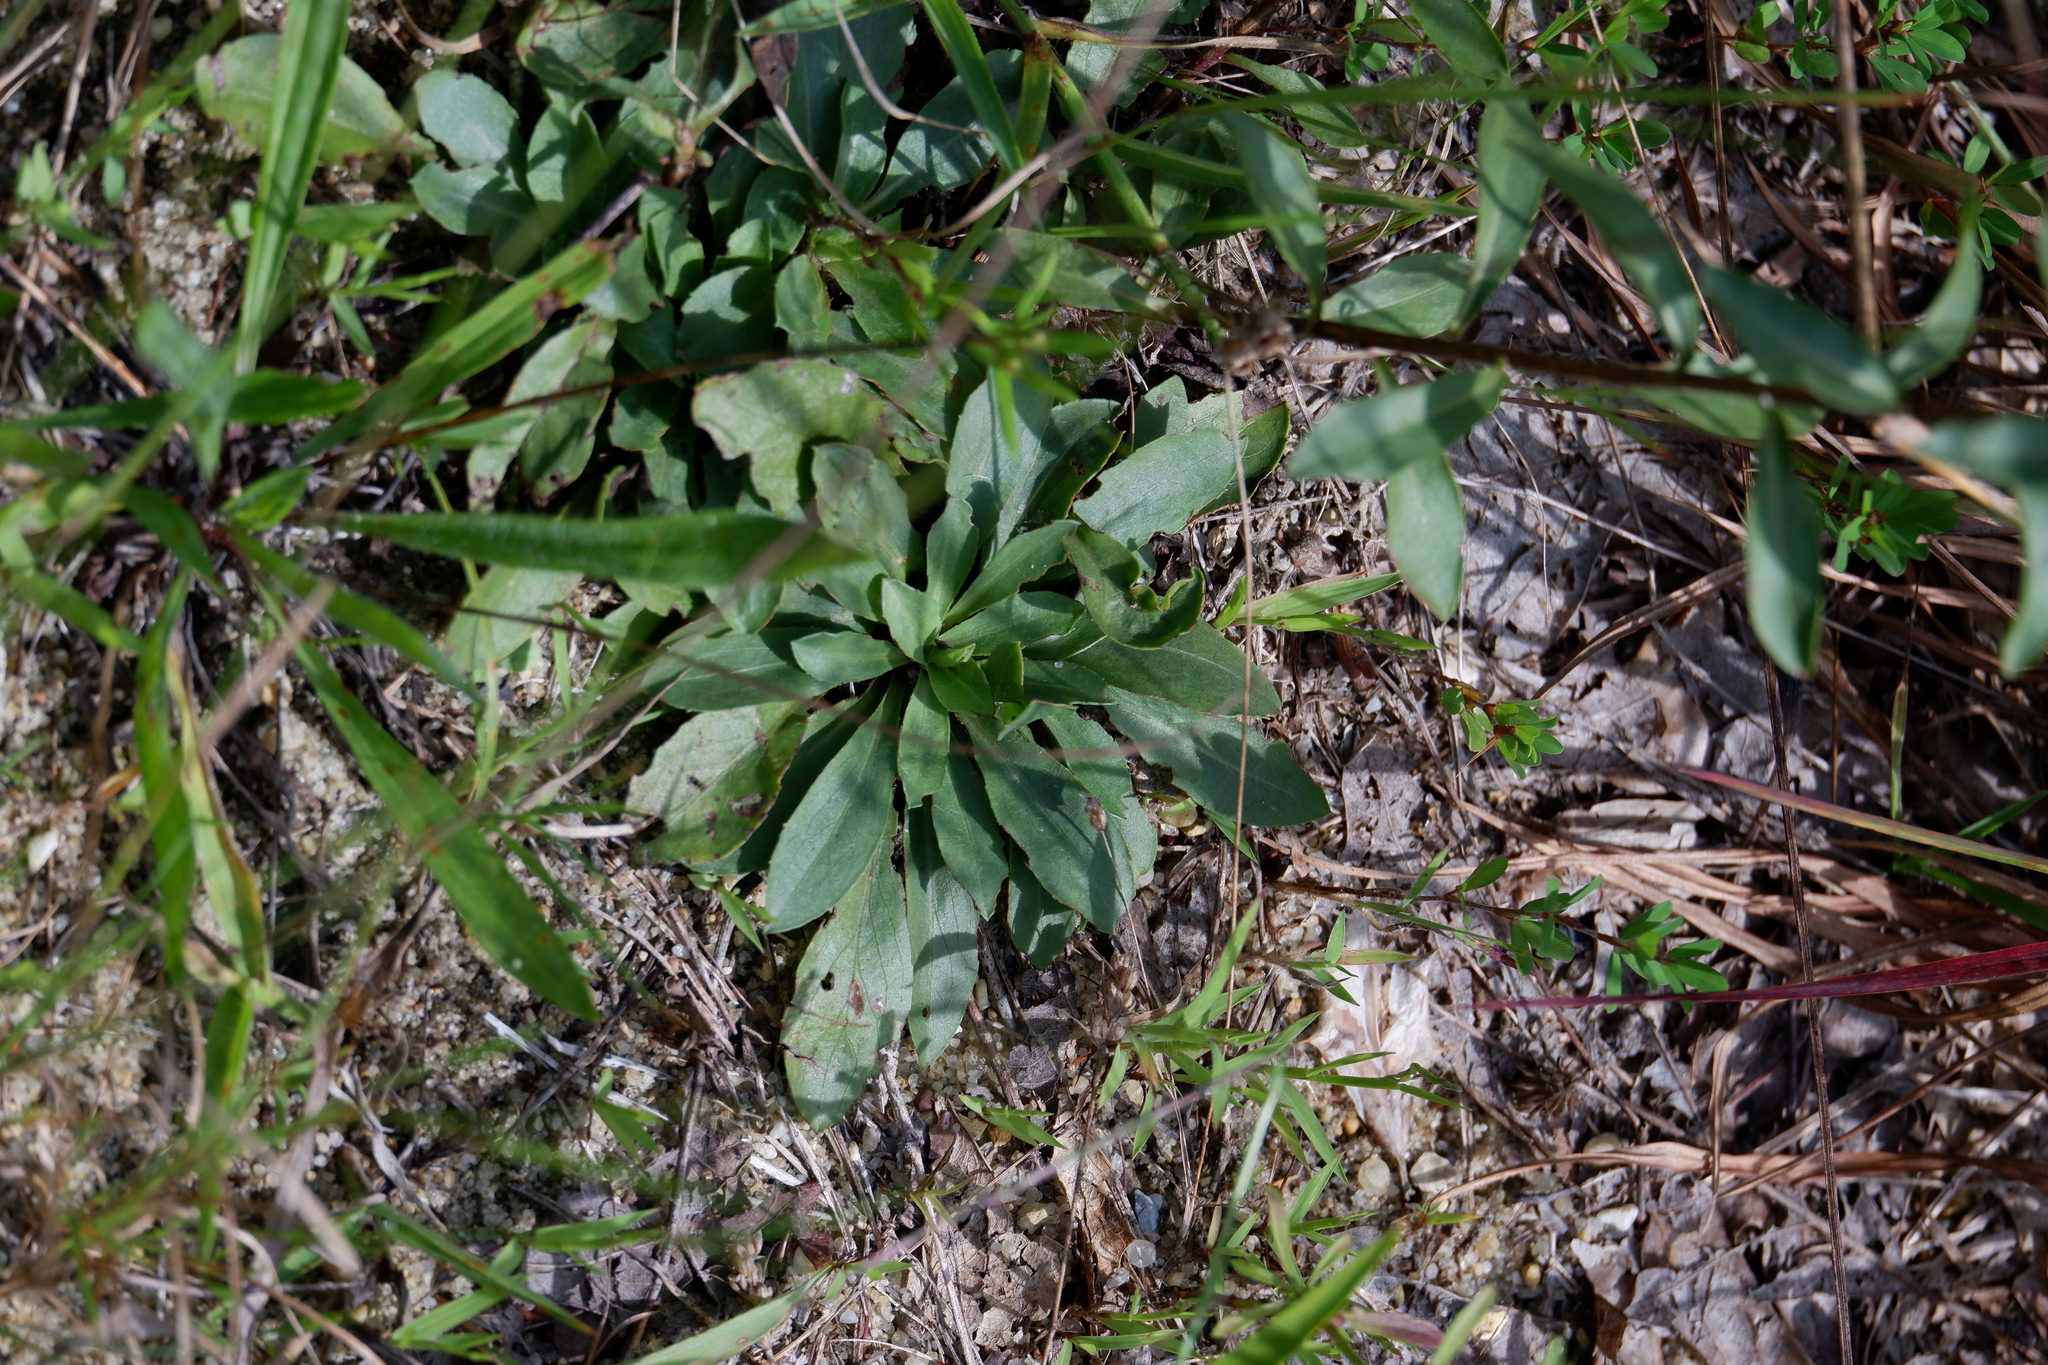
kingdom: Plantae
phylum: Tracheophyta
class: Magnoliopsida
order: Asterales
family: Asteraceae
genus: Chrysopsis
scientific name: Chrysopsis mariana
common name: Maryland golden-aster
